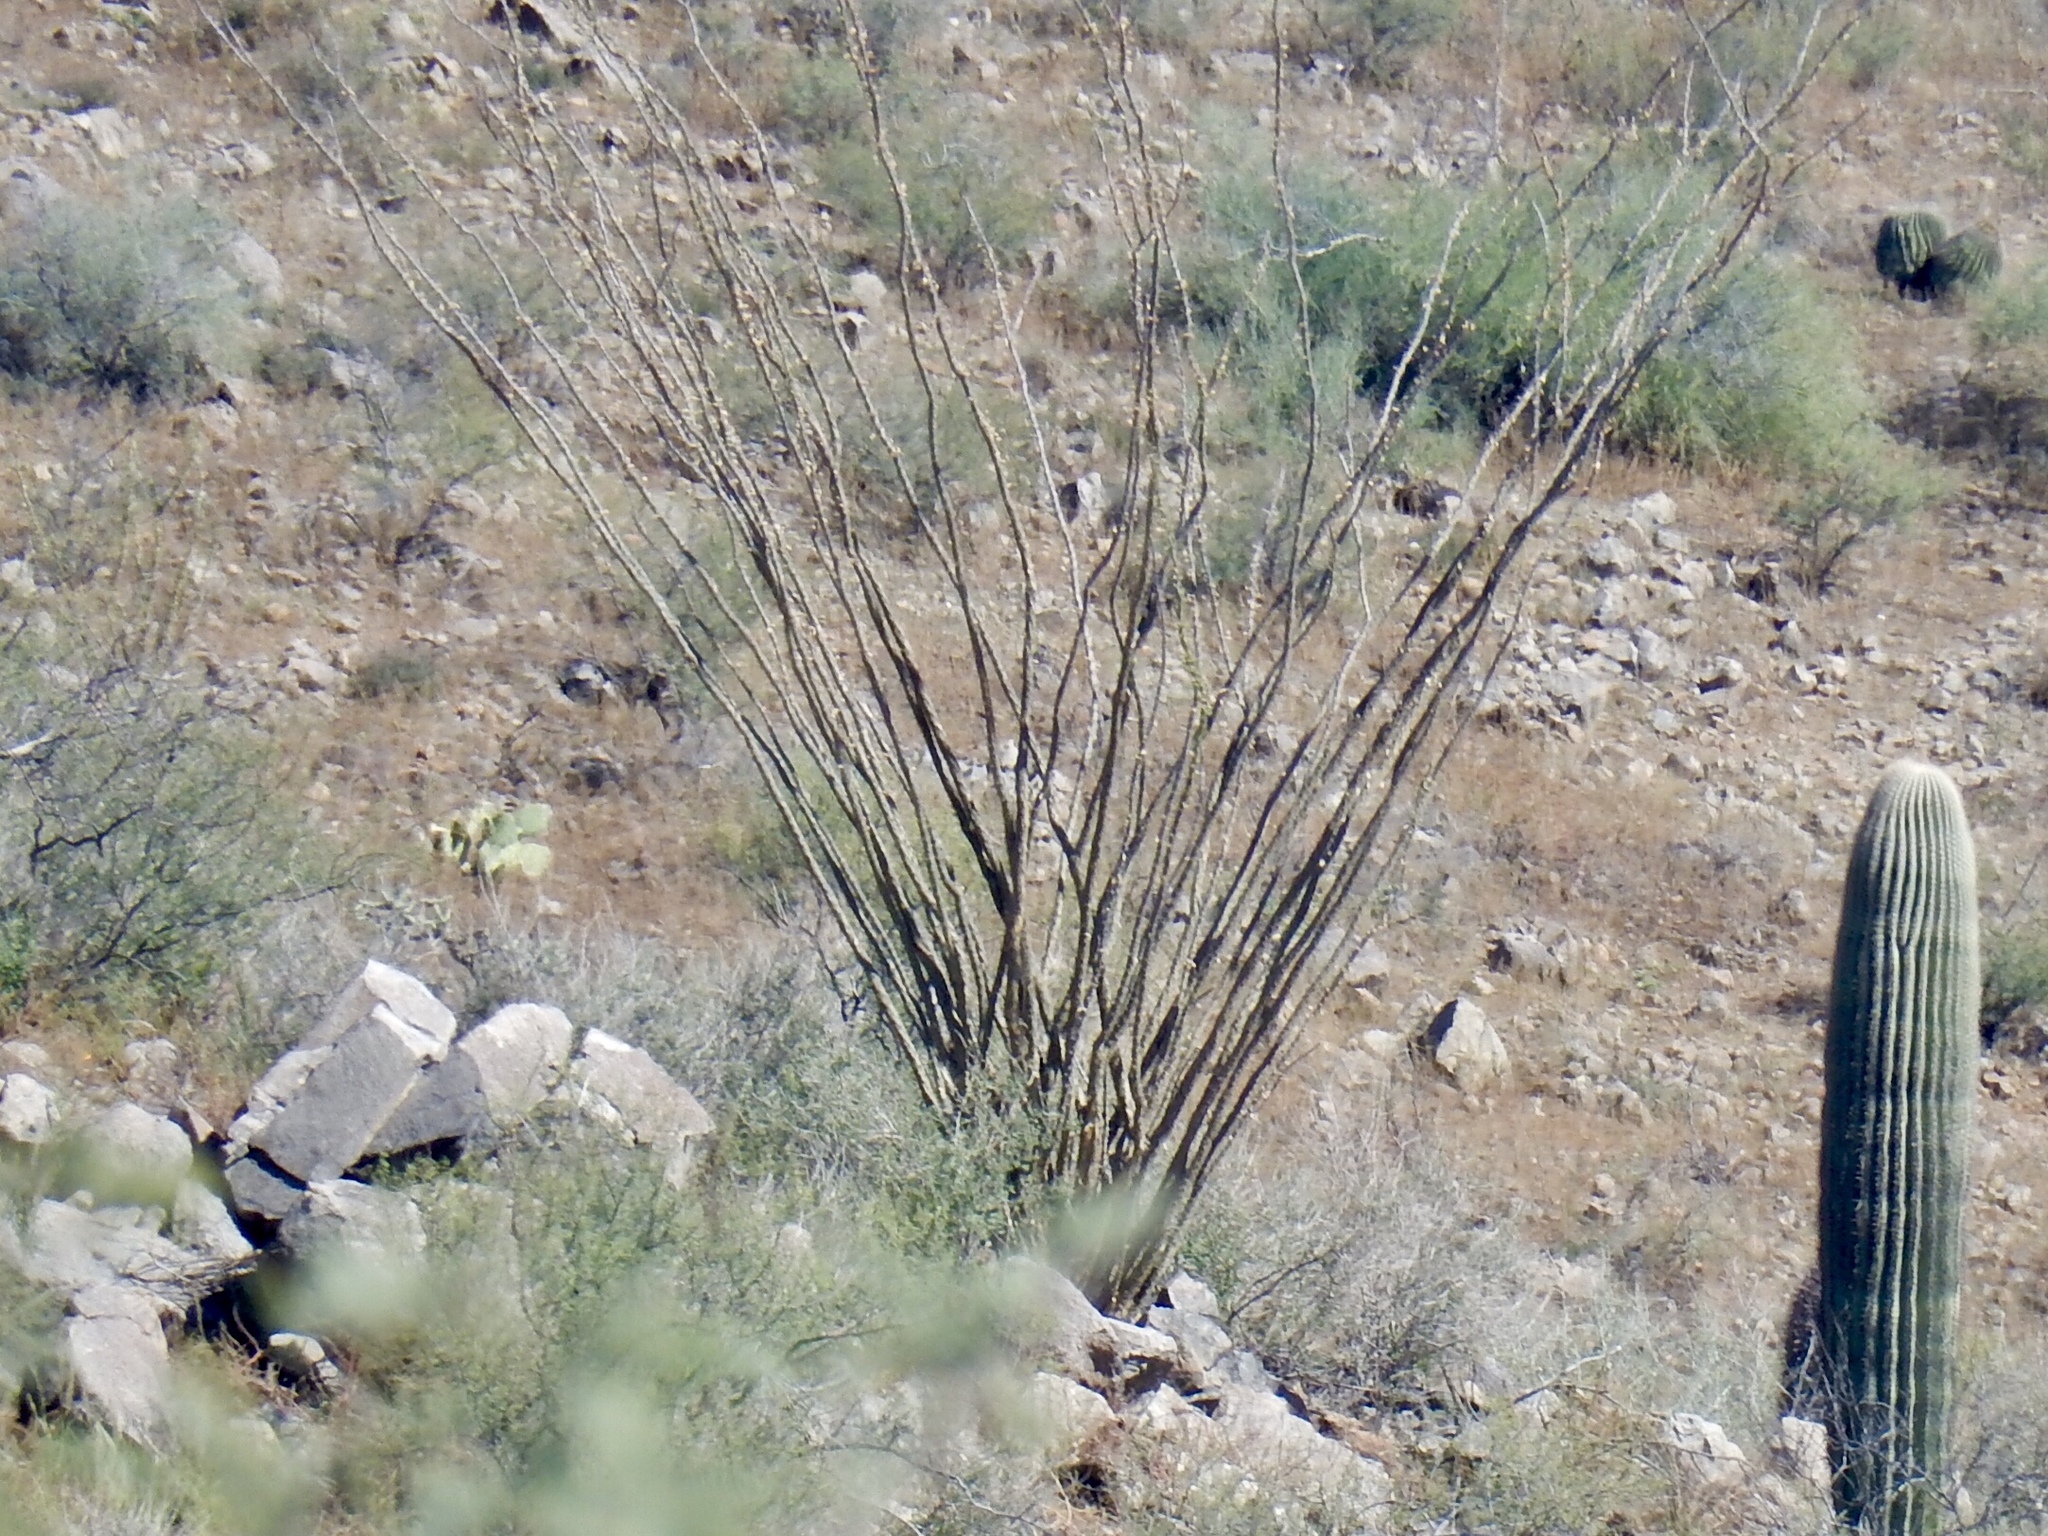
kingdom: Plantae
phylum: Tracheophyta
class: Magnoliopsida
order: Ericales
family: Fouquieriaceae
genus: Fouquieria
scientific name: Fouquieria splendens
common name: Vine-cactus
